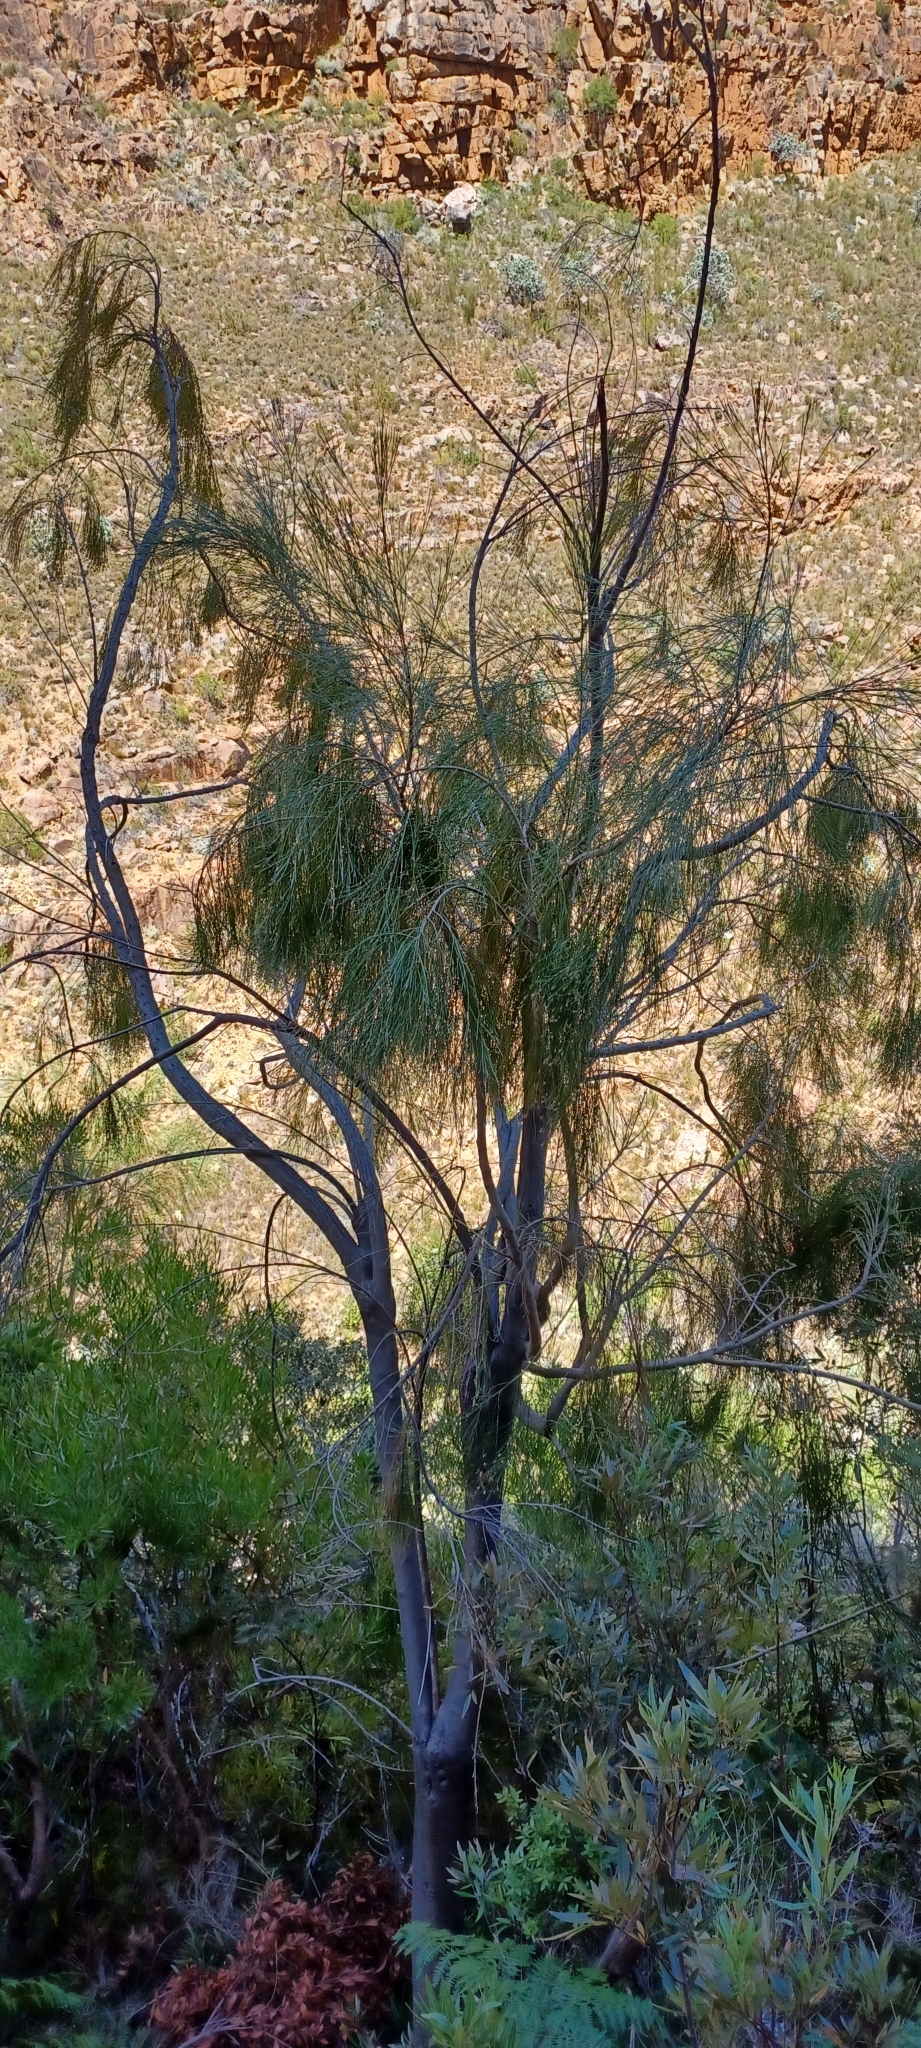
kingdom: Plantae
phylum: Tracheophyta
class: Magnoliopsida
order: Fabales
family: Fabaceae
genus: Psoralea
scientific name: Psoralea fleta
